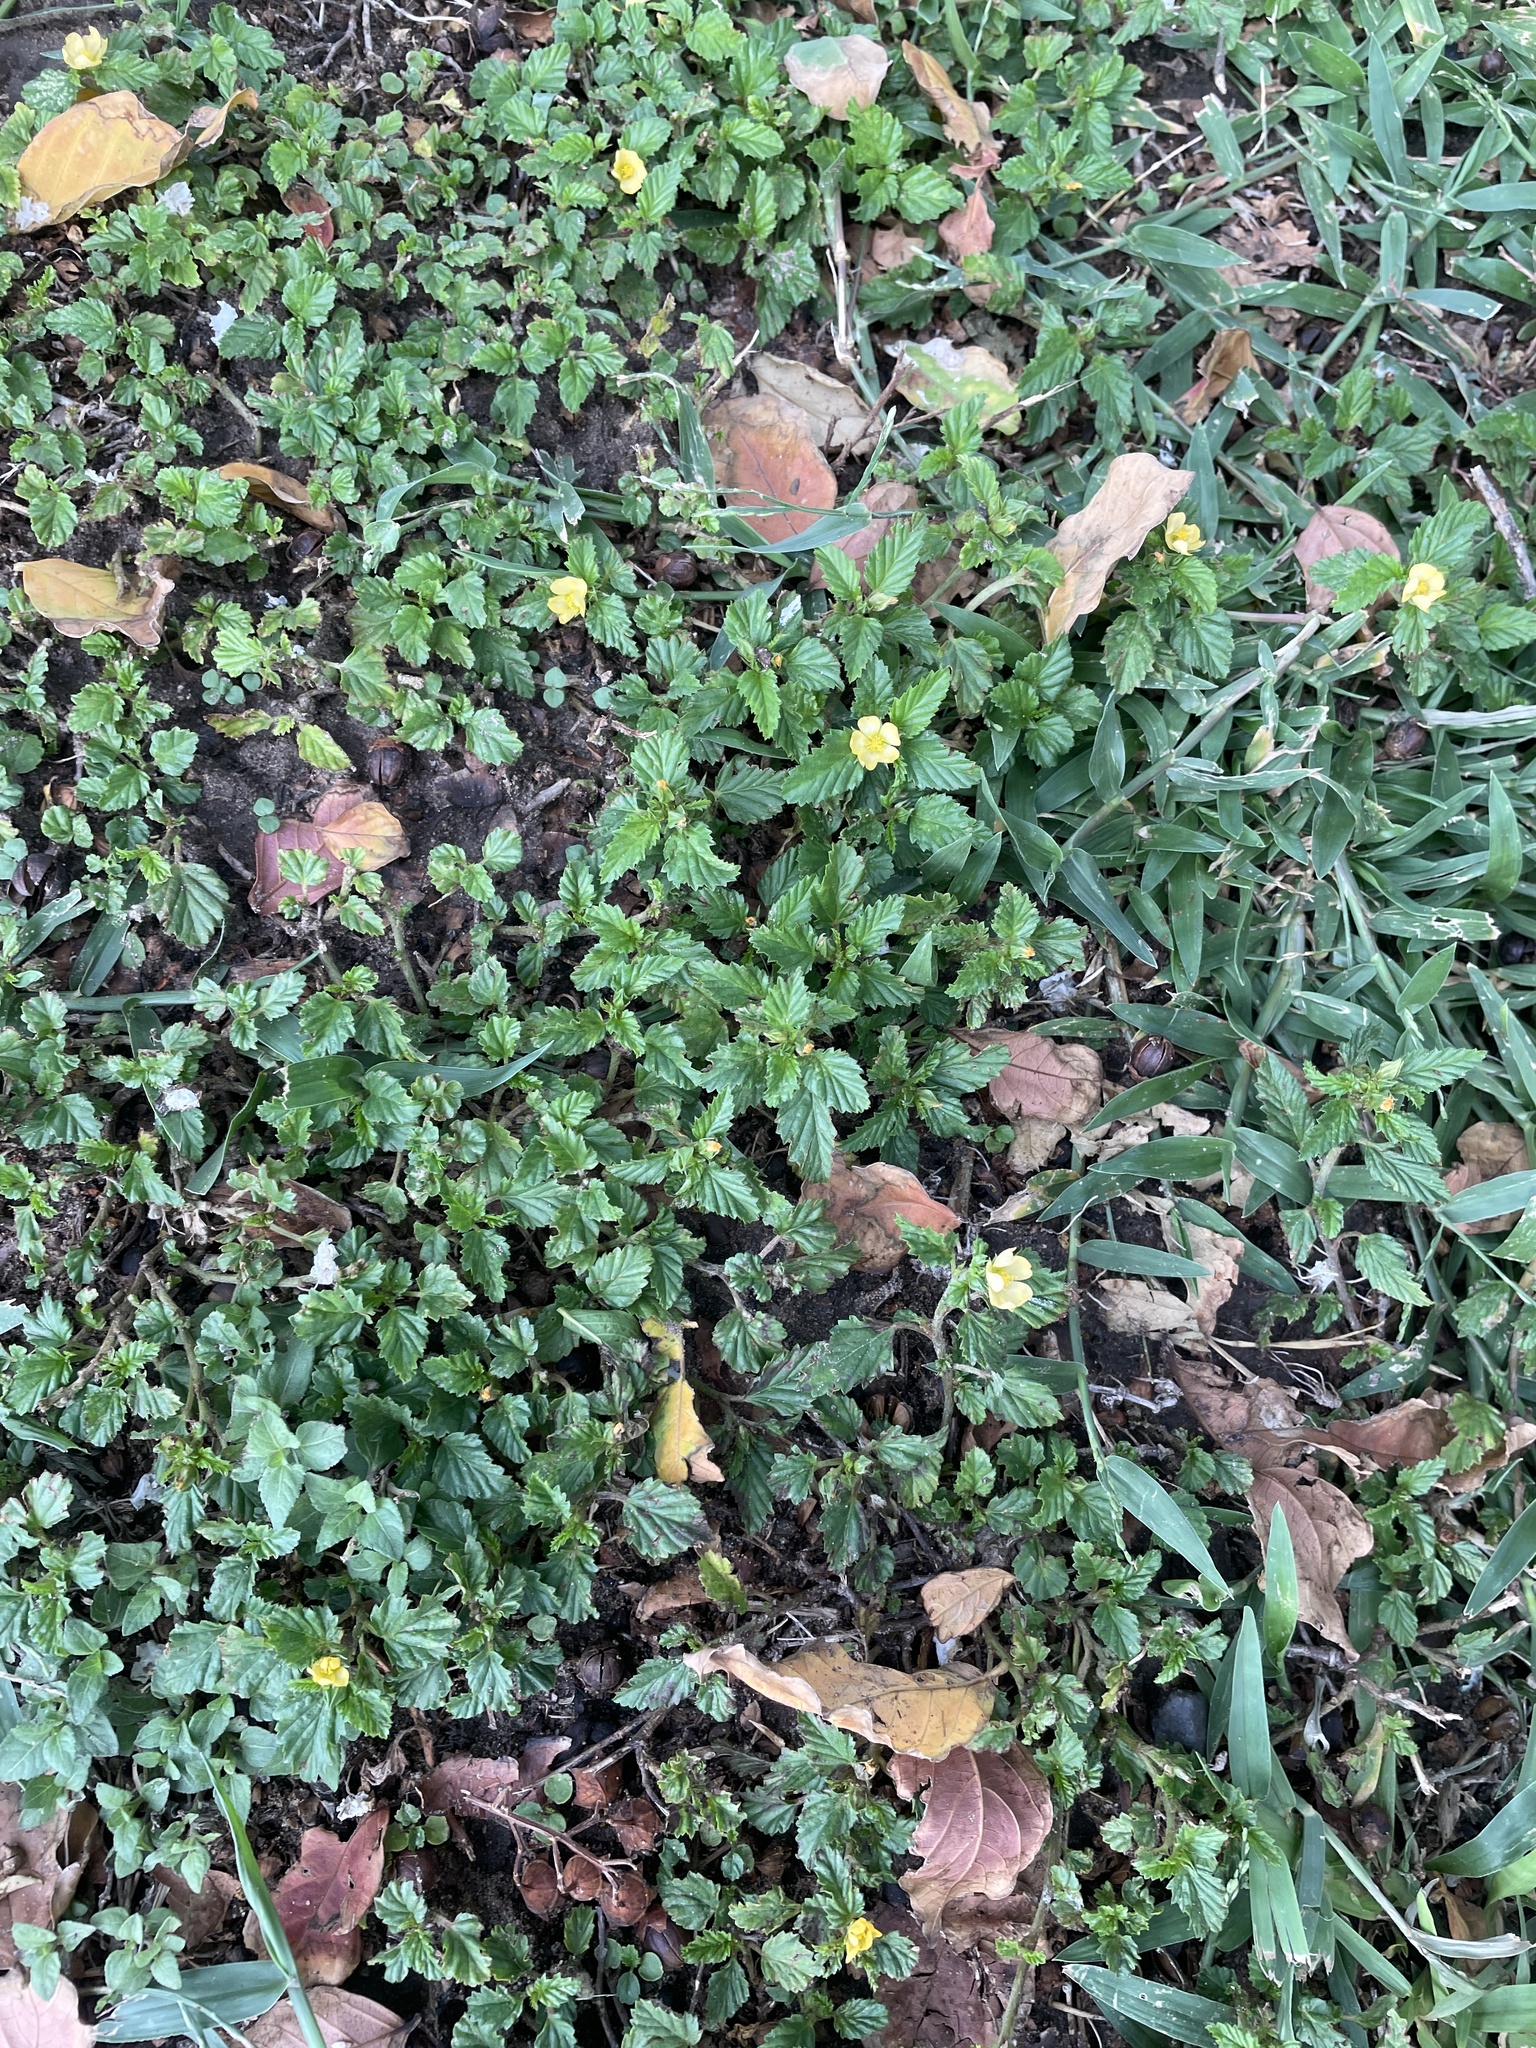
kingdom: Plantae
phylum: Tracheophyta
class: Magnoliopsida
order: Malvales
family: Malvaceae
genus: Malvastrum
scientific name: Malvastrum coromandelianum
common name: Threelobe false mallow
